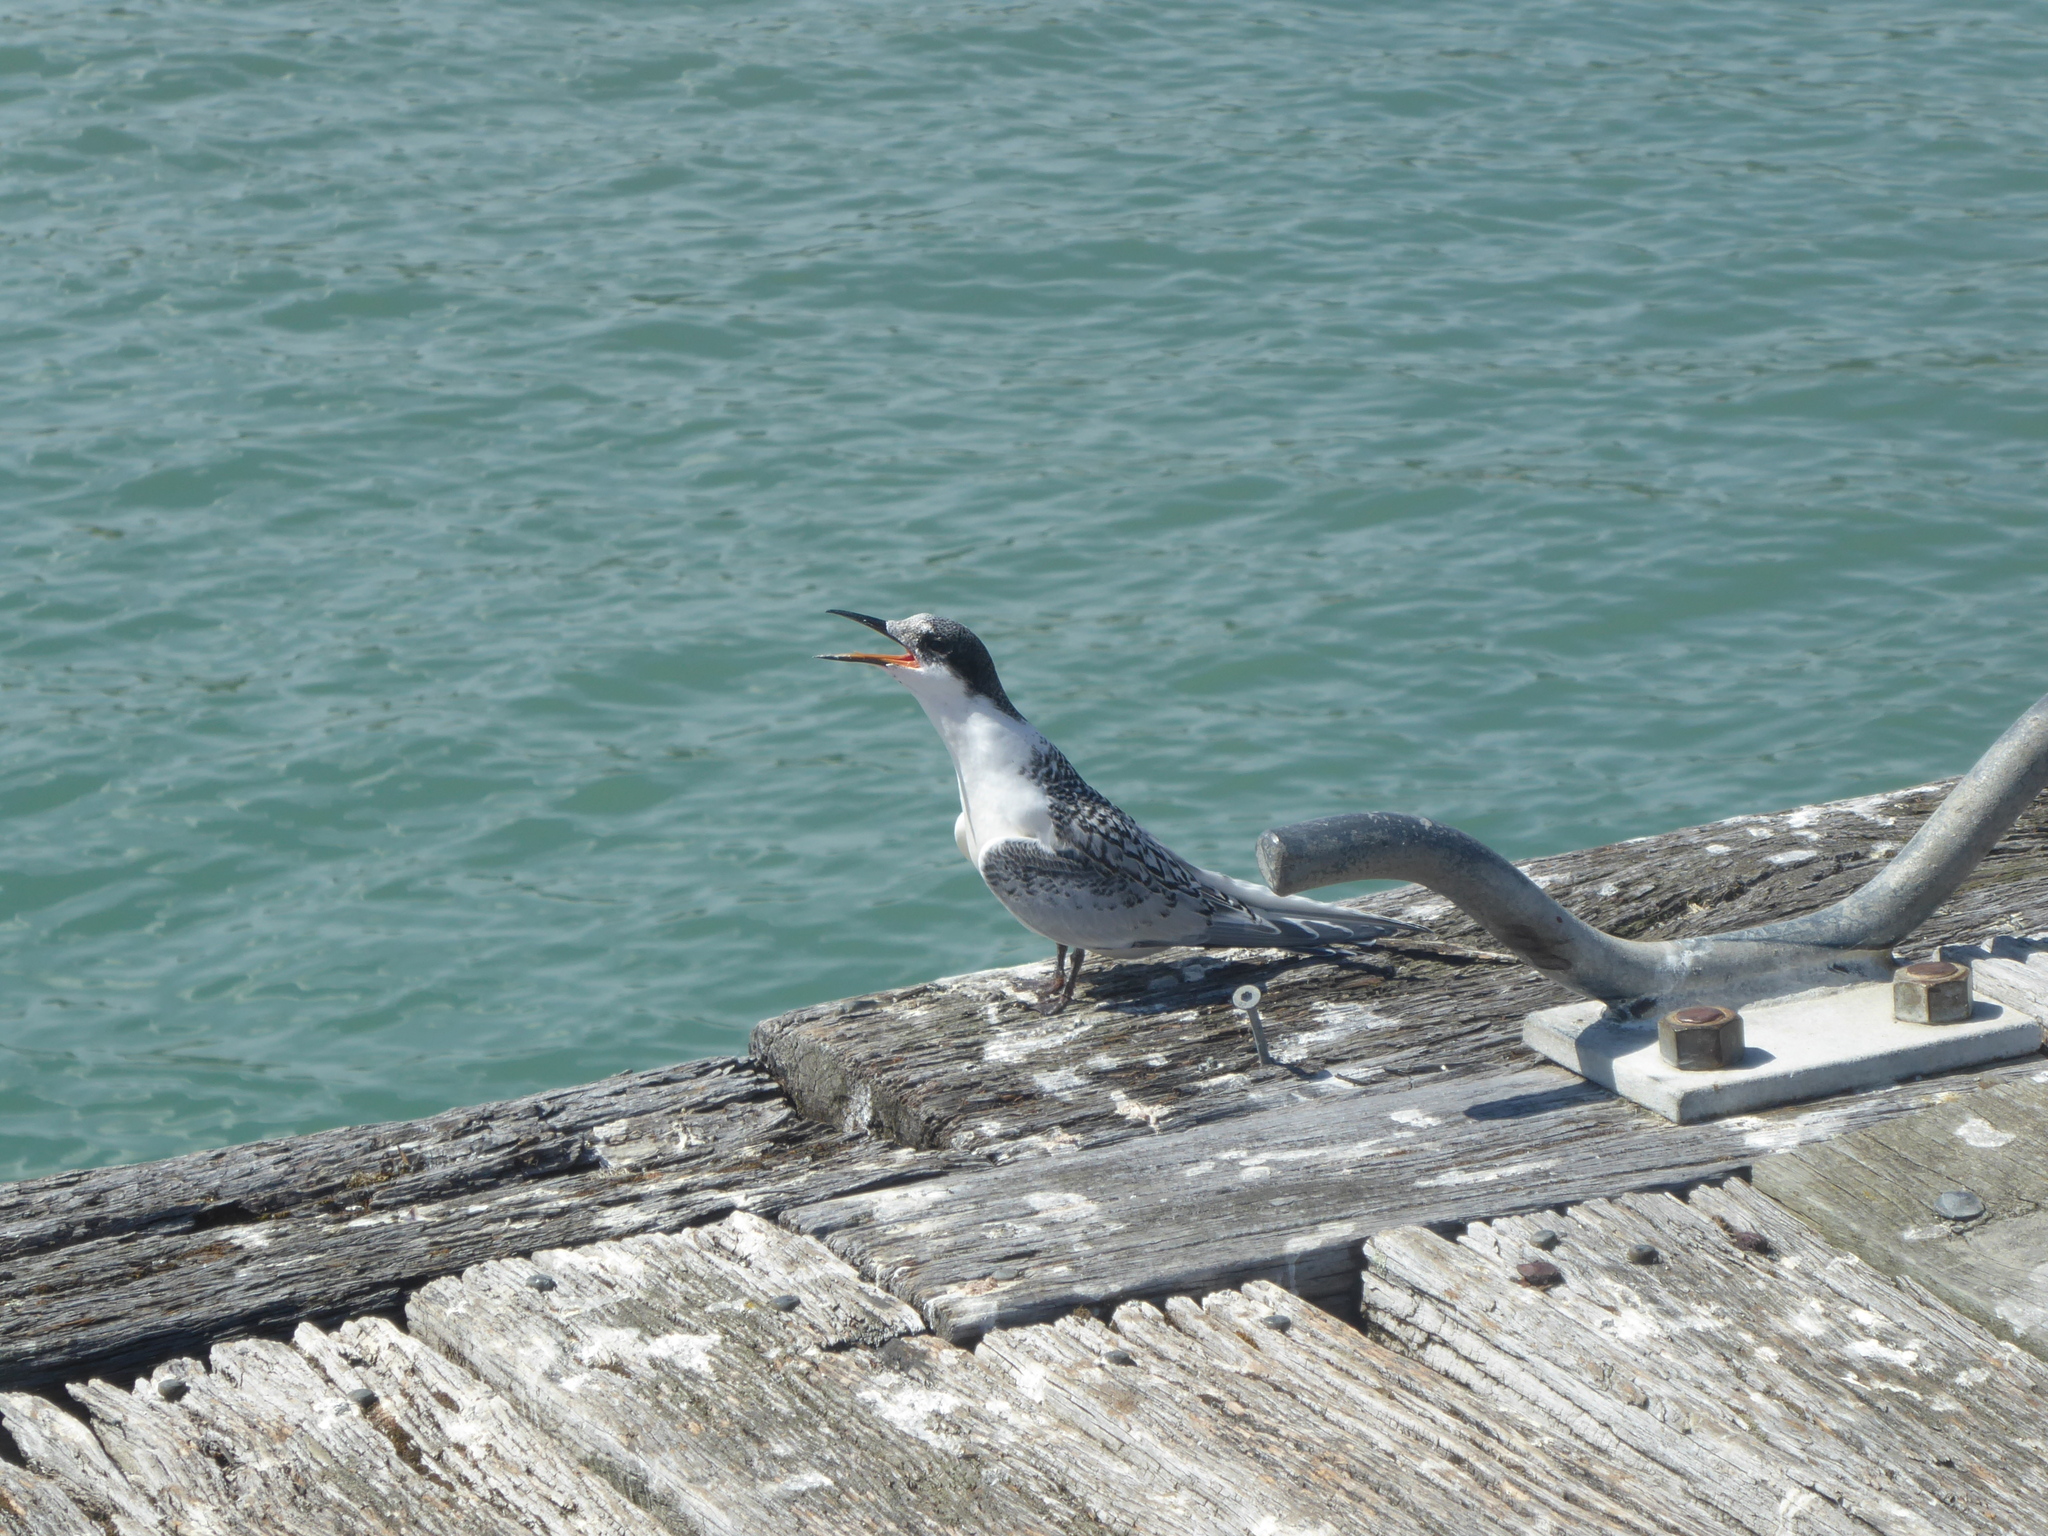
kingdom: Animalia
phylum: Chordata
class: Aves
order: Charadriiformes
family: Laridae
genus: Sterna
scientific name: Sterna striata
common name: White-fronted tern
